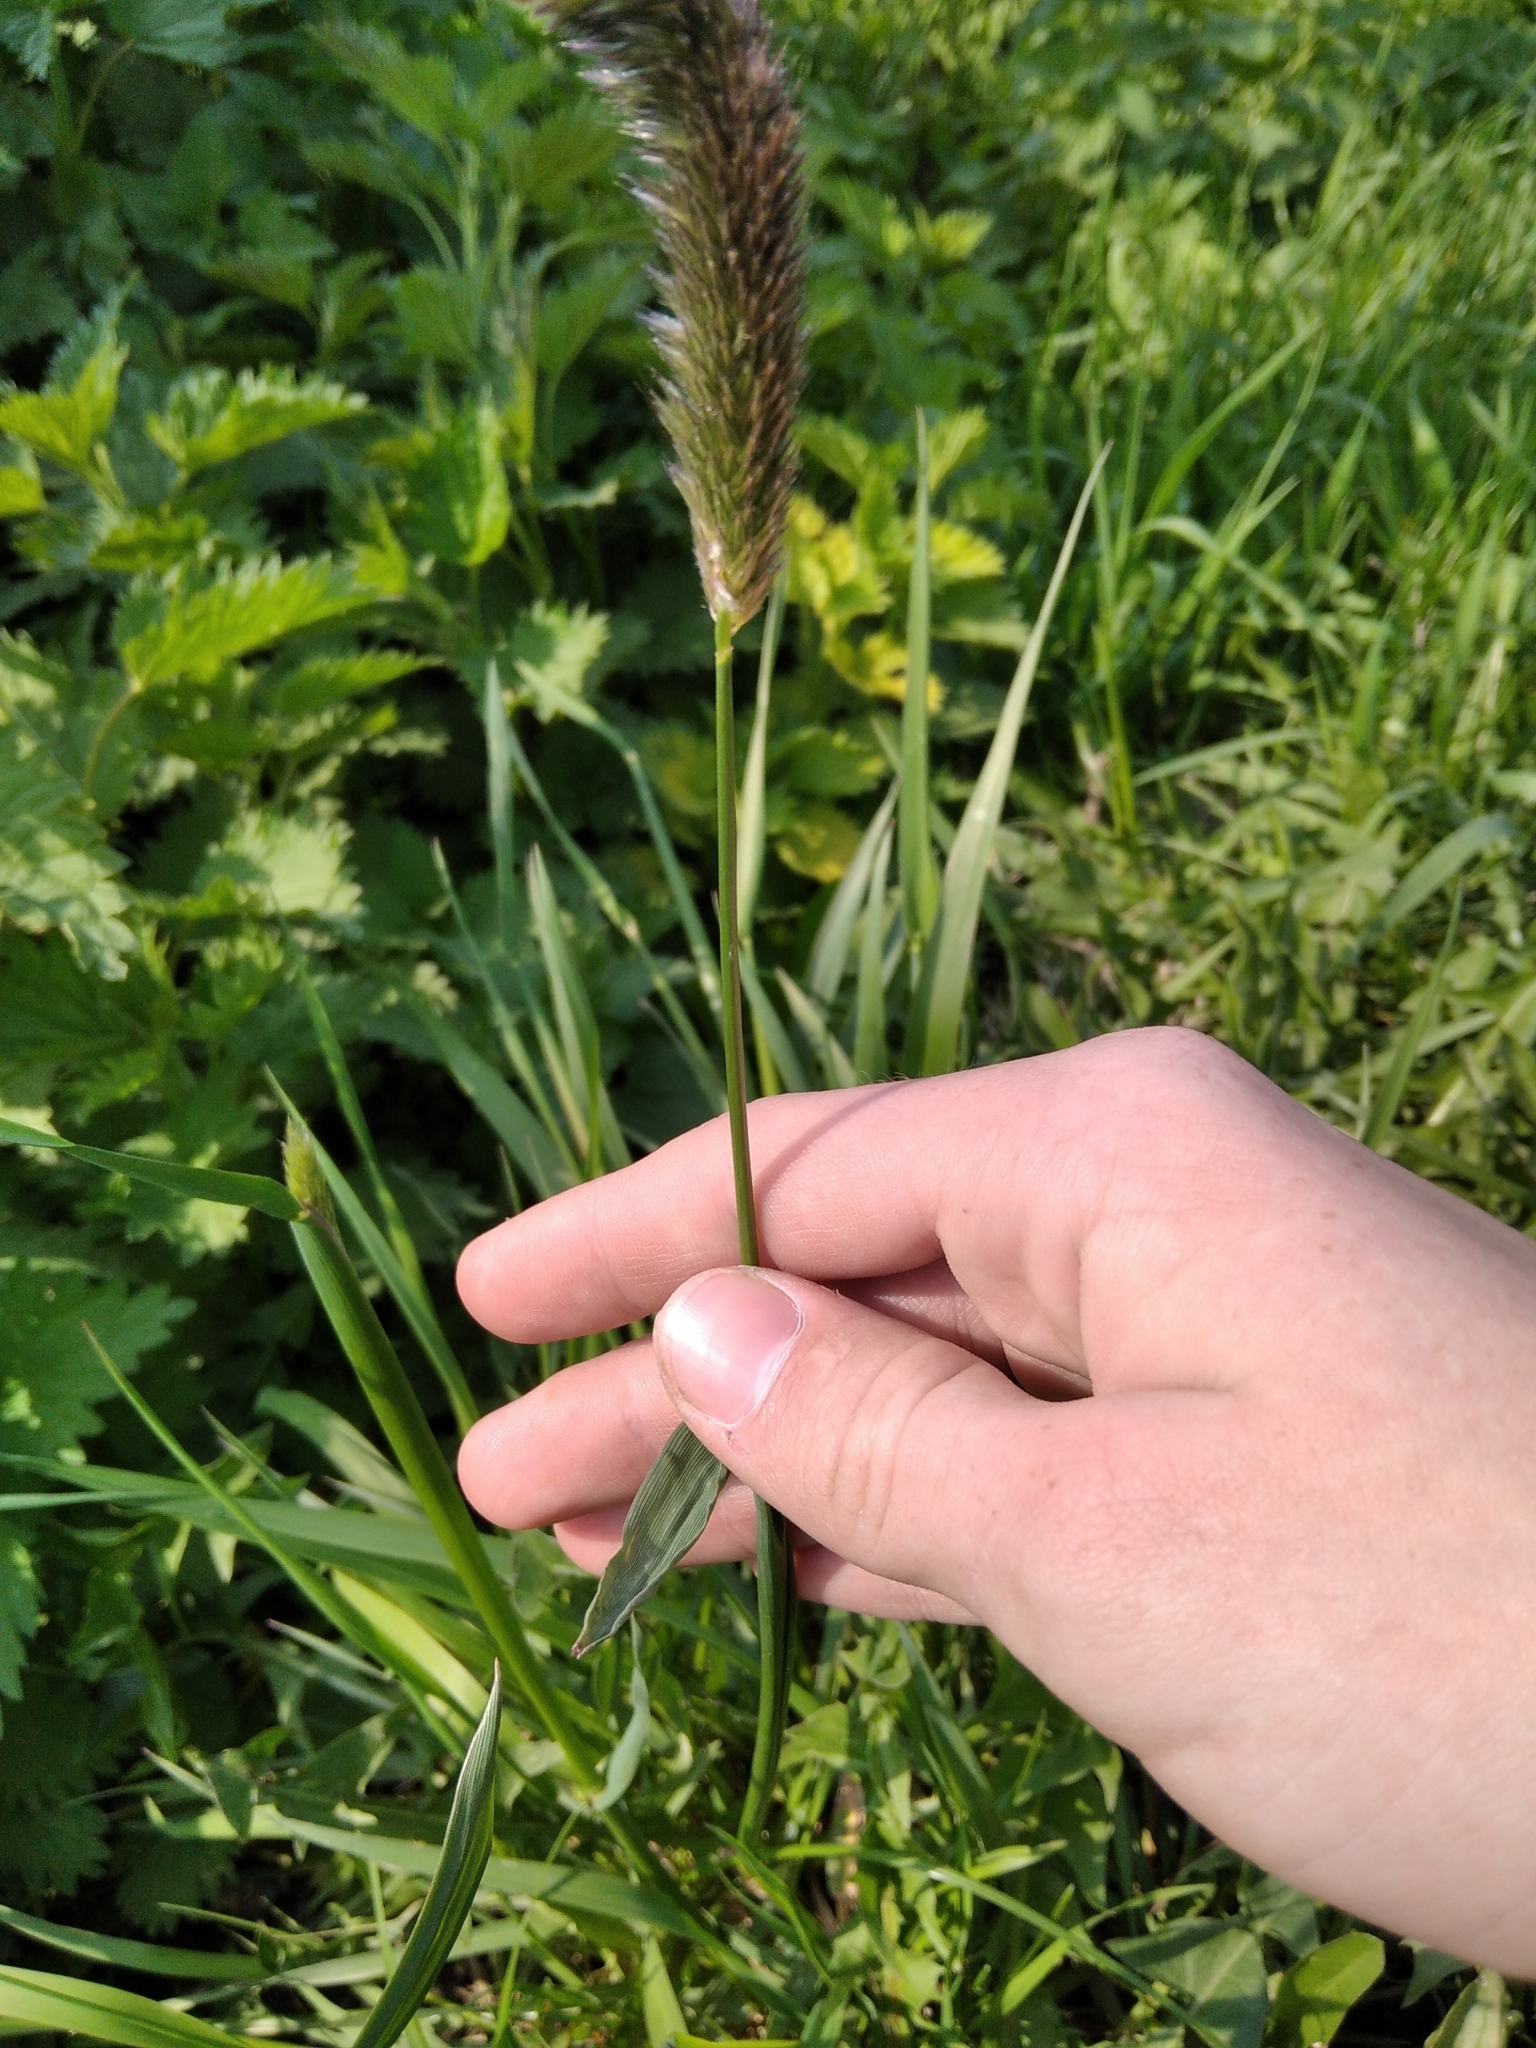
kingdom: Plantae
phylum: Tracheophyta
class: Liliopsida
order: Poales
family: Poaceae
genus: Alopecurus
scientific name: Alopecurus pratensis
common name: Meadow foxtail
